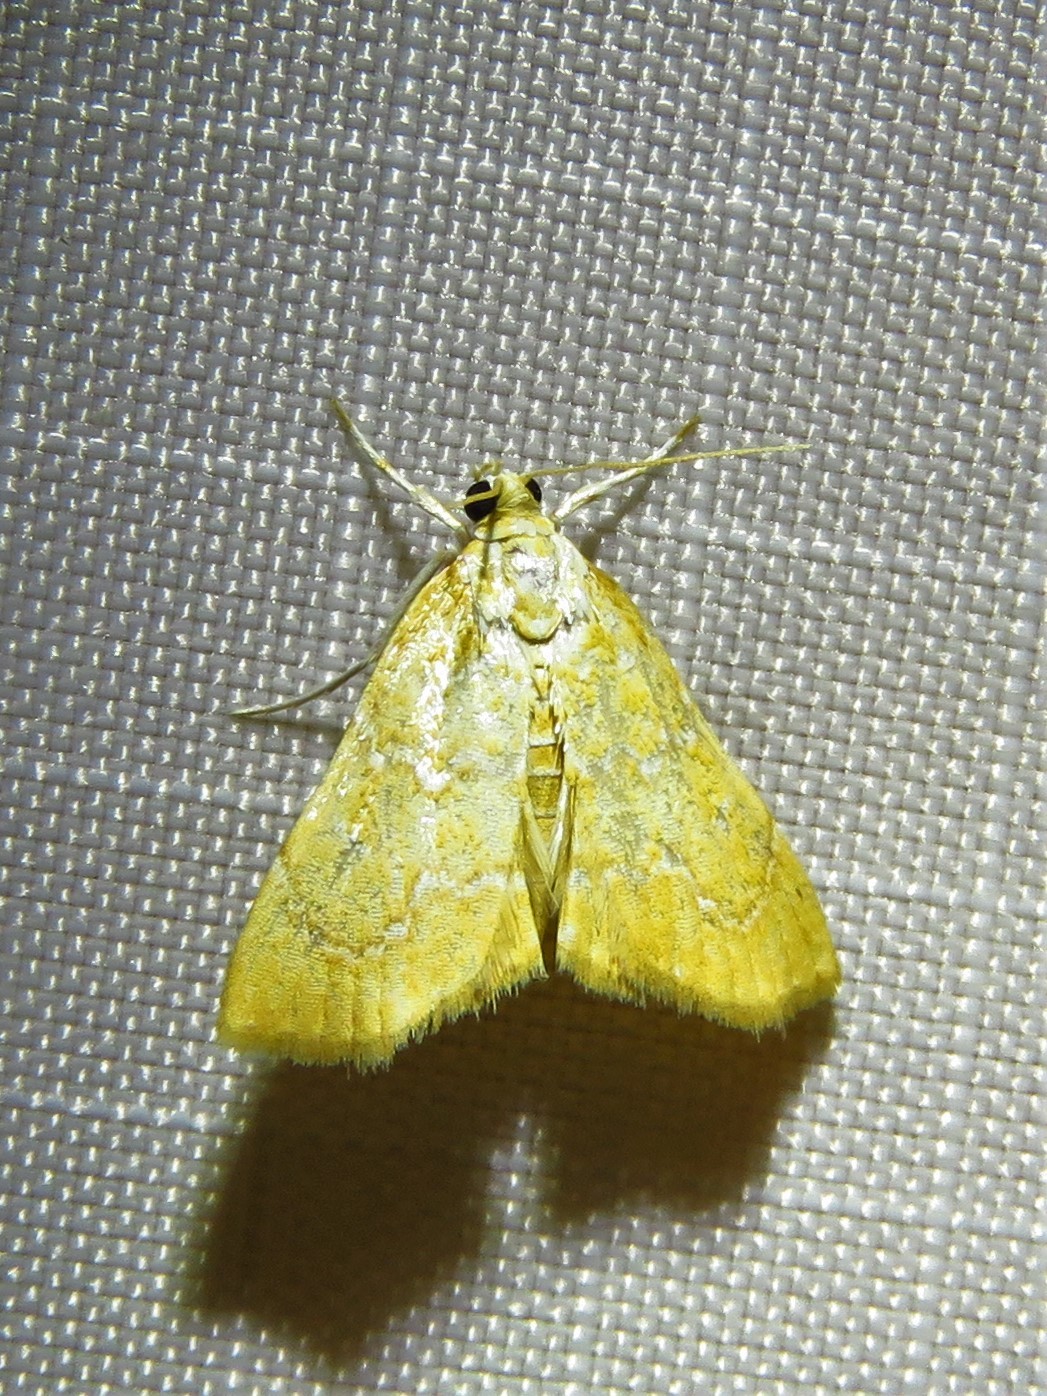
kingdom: Animalia
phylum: Arthropoda
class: Insecta
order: Lepidoptera
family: Crambidae
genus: Glaphyria
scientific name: Glaphyria sesquistrialis
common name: White-roped glaphyria
